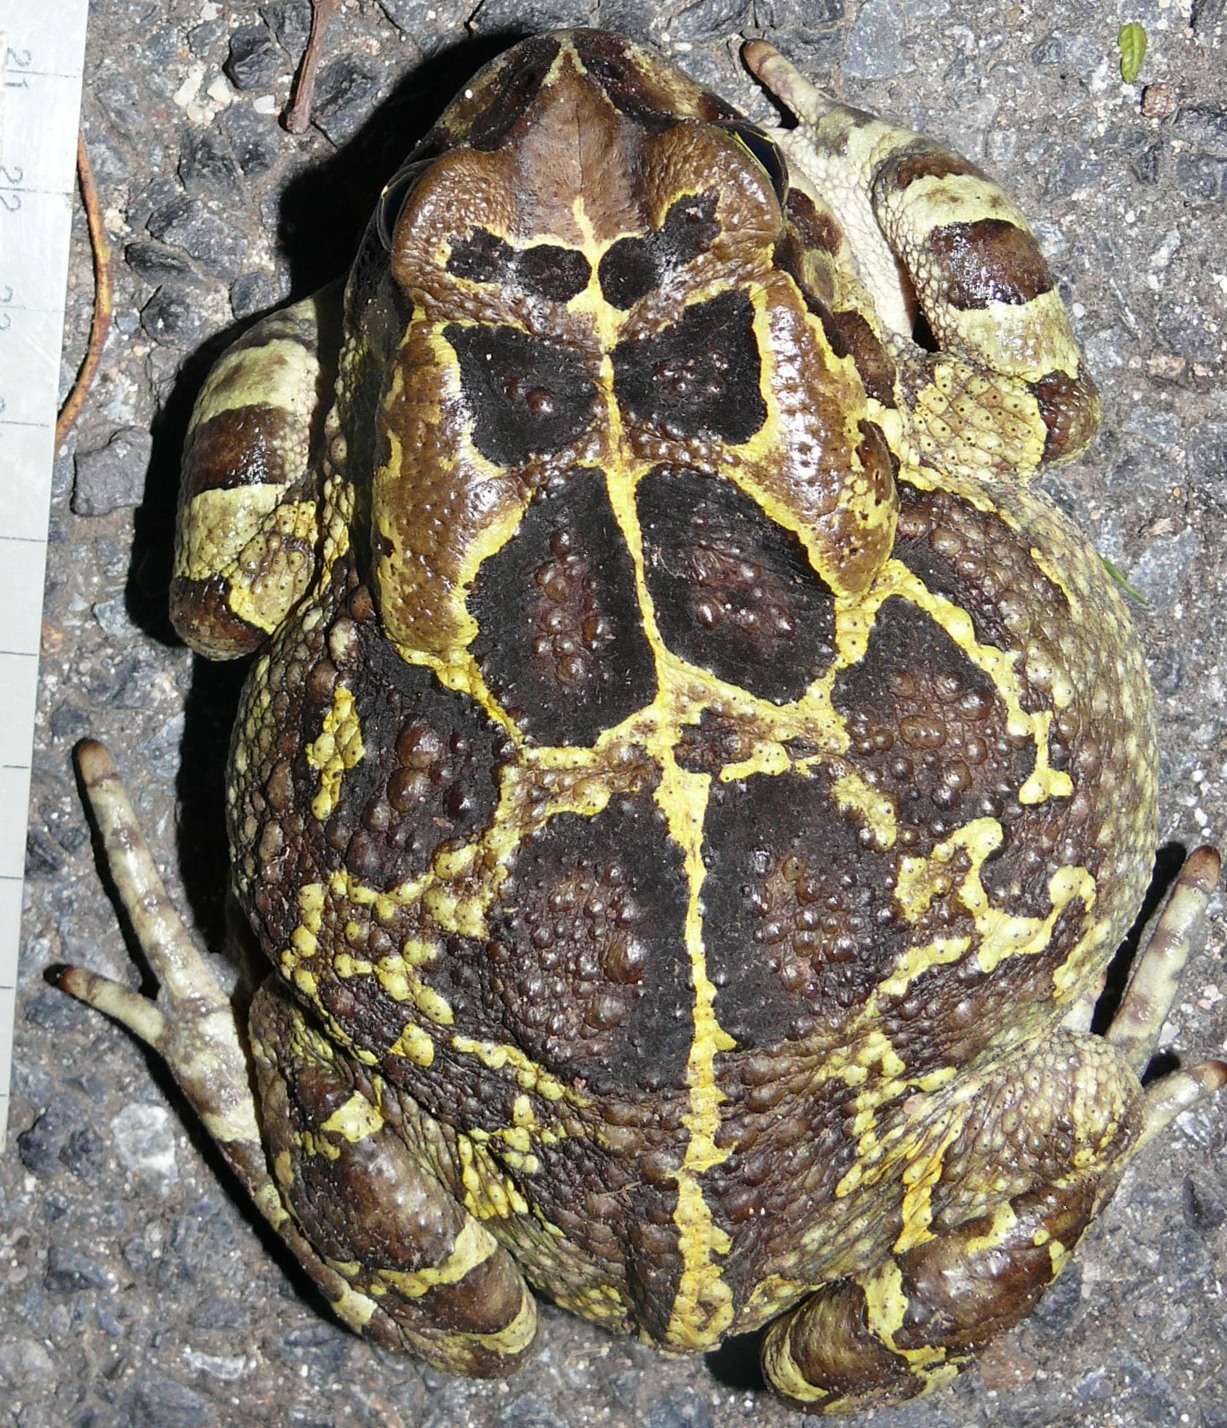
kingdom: Animalia
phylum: Chordata
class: Amphibia
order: Anura
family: Bufonidae
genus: Sclerophrys
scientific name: Sclerophrys pantherina
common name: Panther toad
